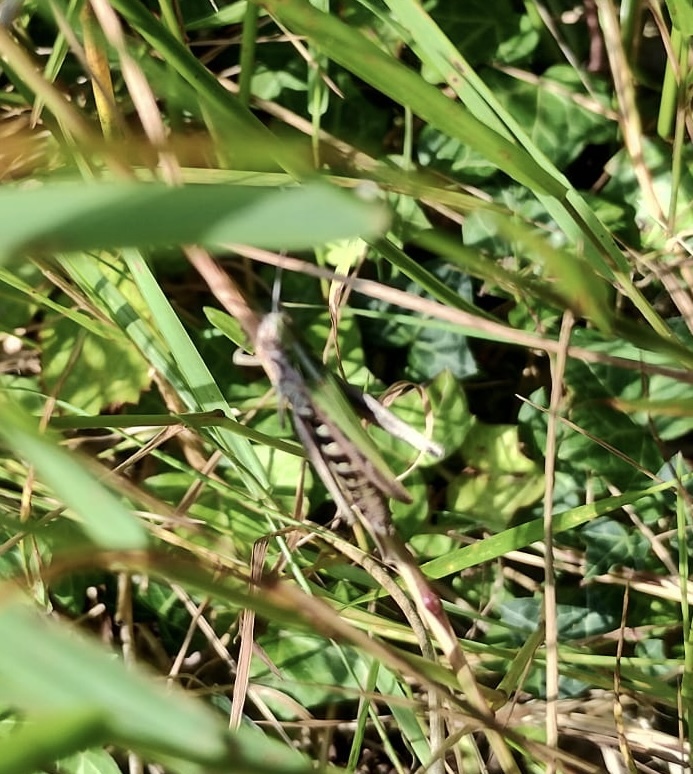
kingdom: Animalia
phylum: Arthropoda
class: Insecta
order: Orthoptera
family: Acrididae
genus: Omocestus
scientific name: Omocestus viridulus
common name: Common green grasshopper
